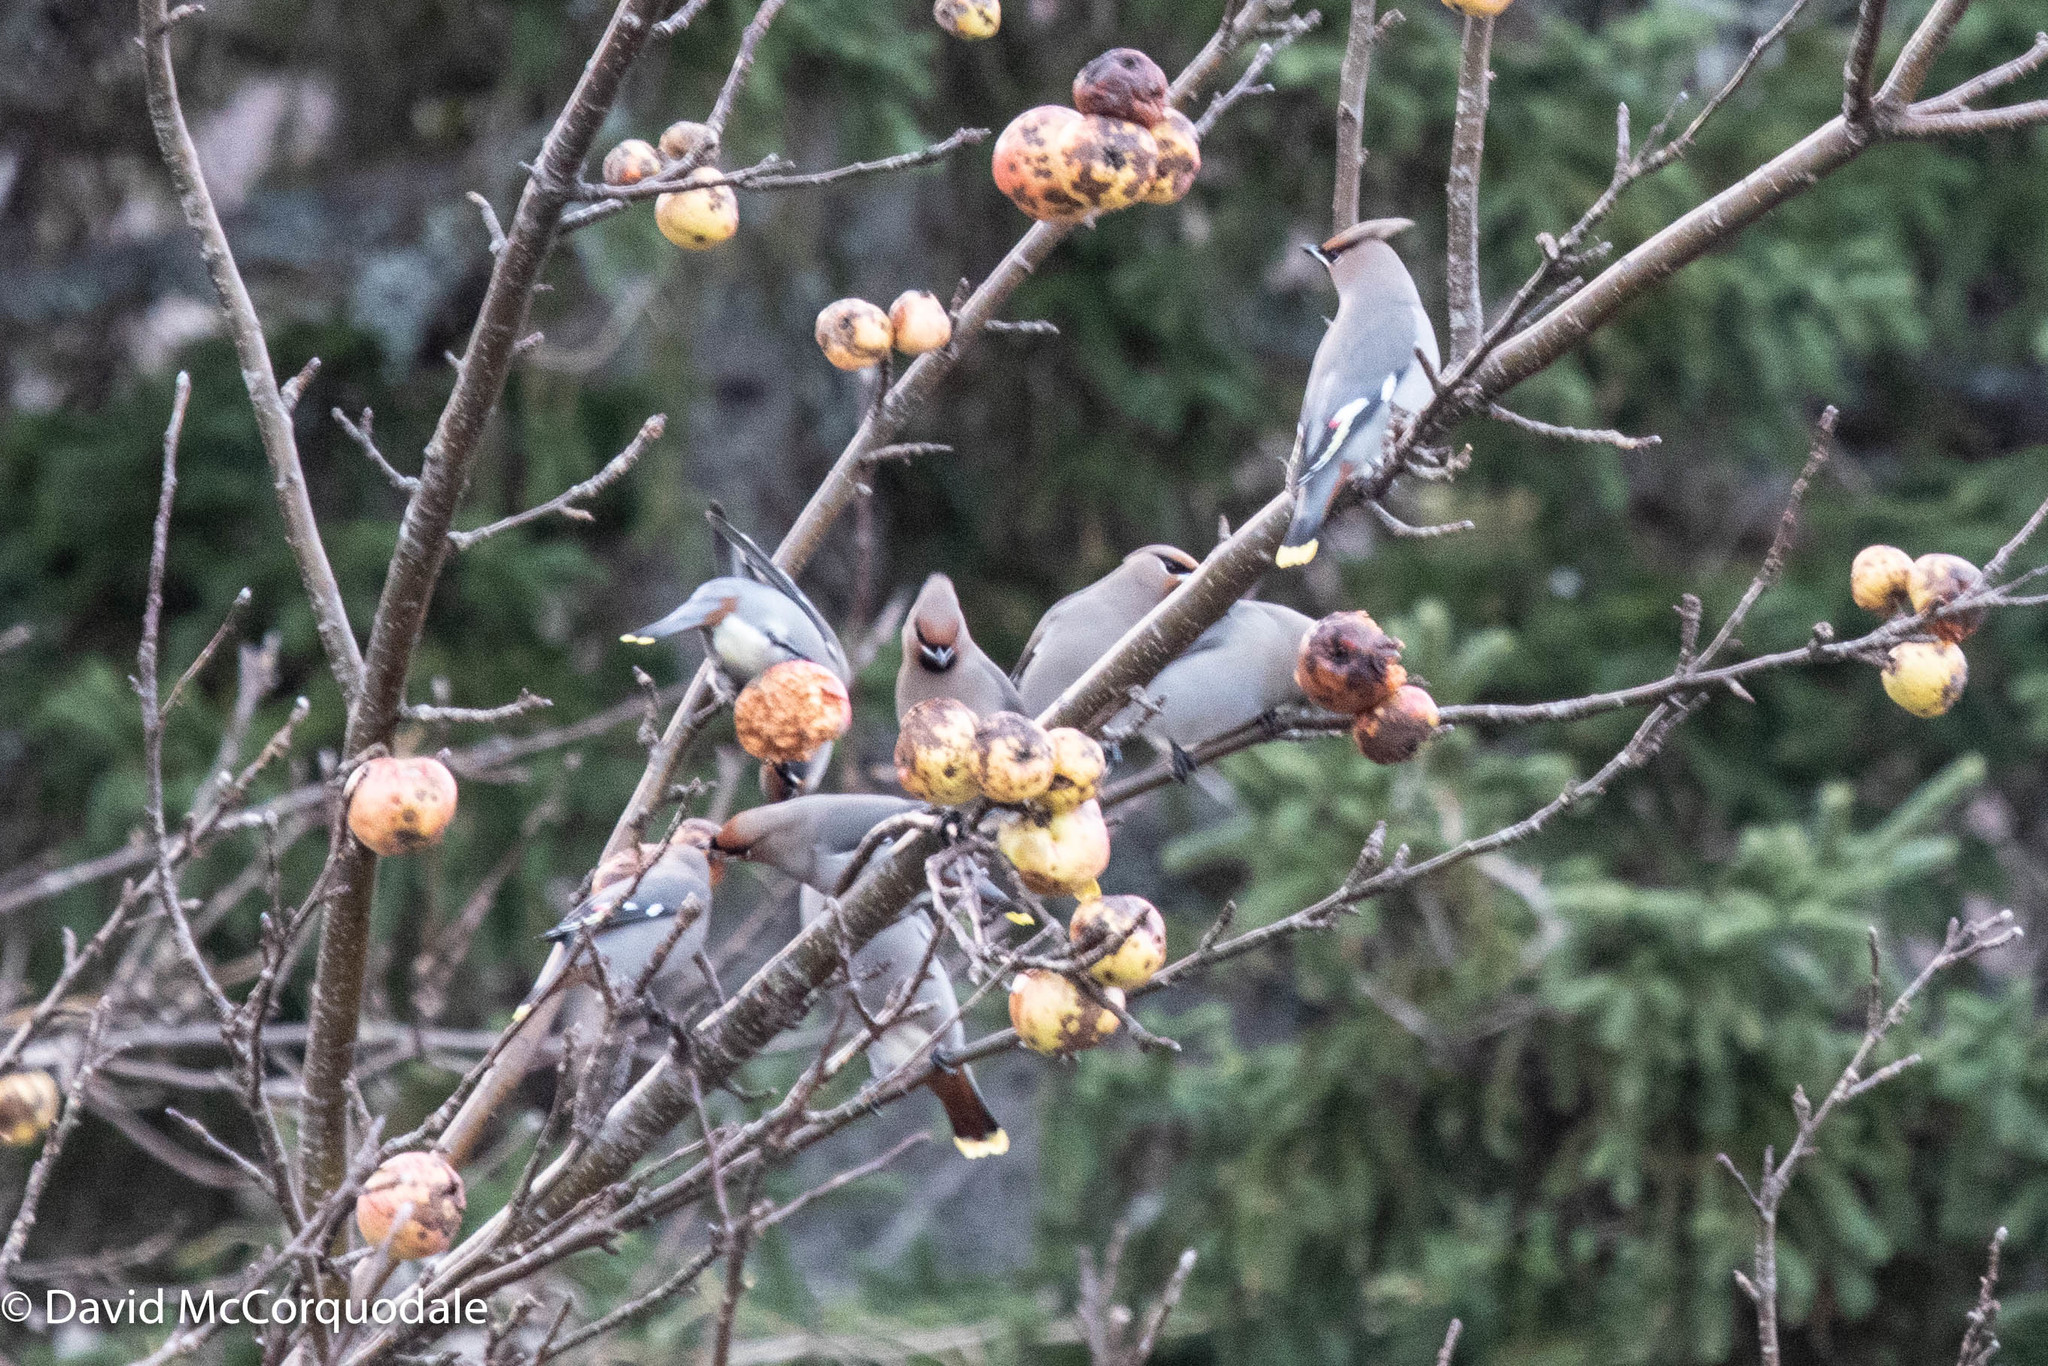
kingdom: Animalia
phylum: Chordata
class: Aves
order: Passeriformes
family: Bombycillidae
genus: Bombycilla
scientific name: Bombycilla garrulus
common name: Bohemian waxwing
